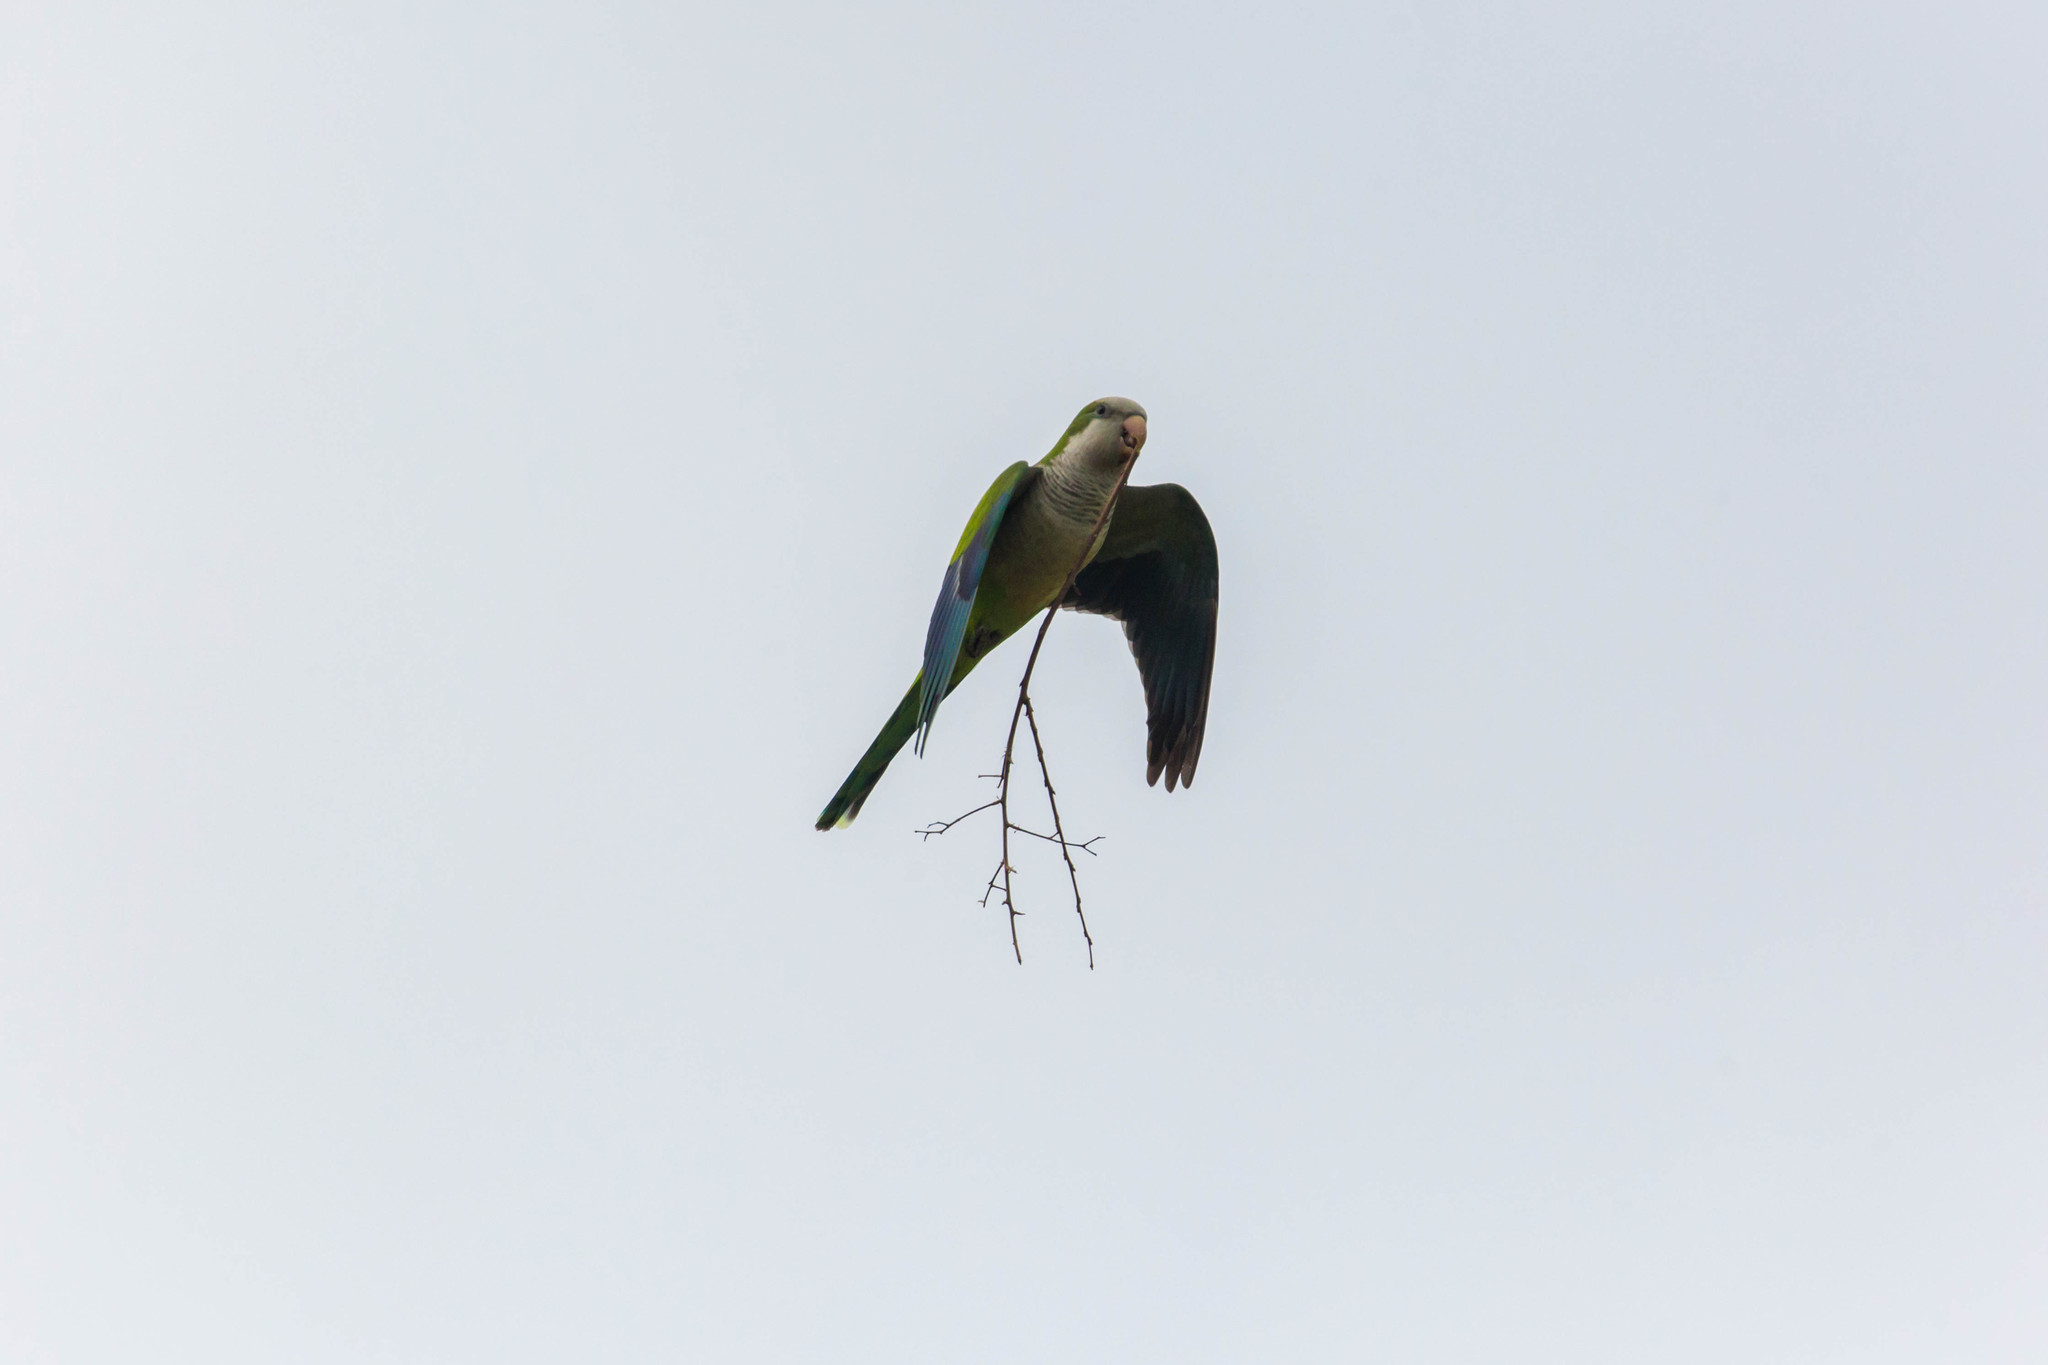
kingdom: Animalia
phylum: Chordata
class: Aves
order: Psittaciformes
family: Psittacidae
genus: Myiopsitta
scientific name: Myiopsitta monachus
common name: Monk parakeet
